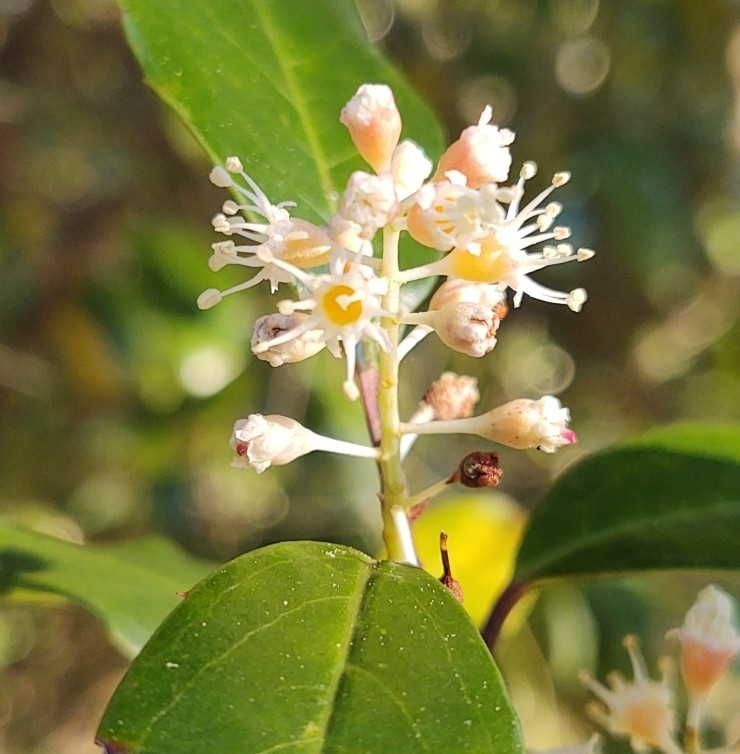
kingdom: Plantae
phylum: Tracheophyta
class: Magnoliopsida
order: Rosales
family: Rosaceae
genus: Prunus
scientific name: Prunus caroliniana
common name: Carolina laurel cherry
